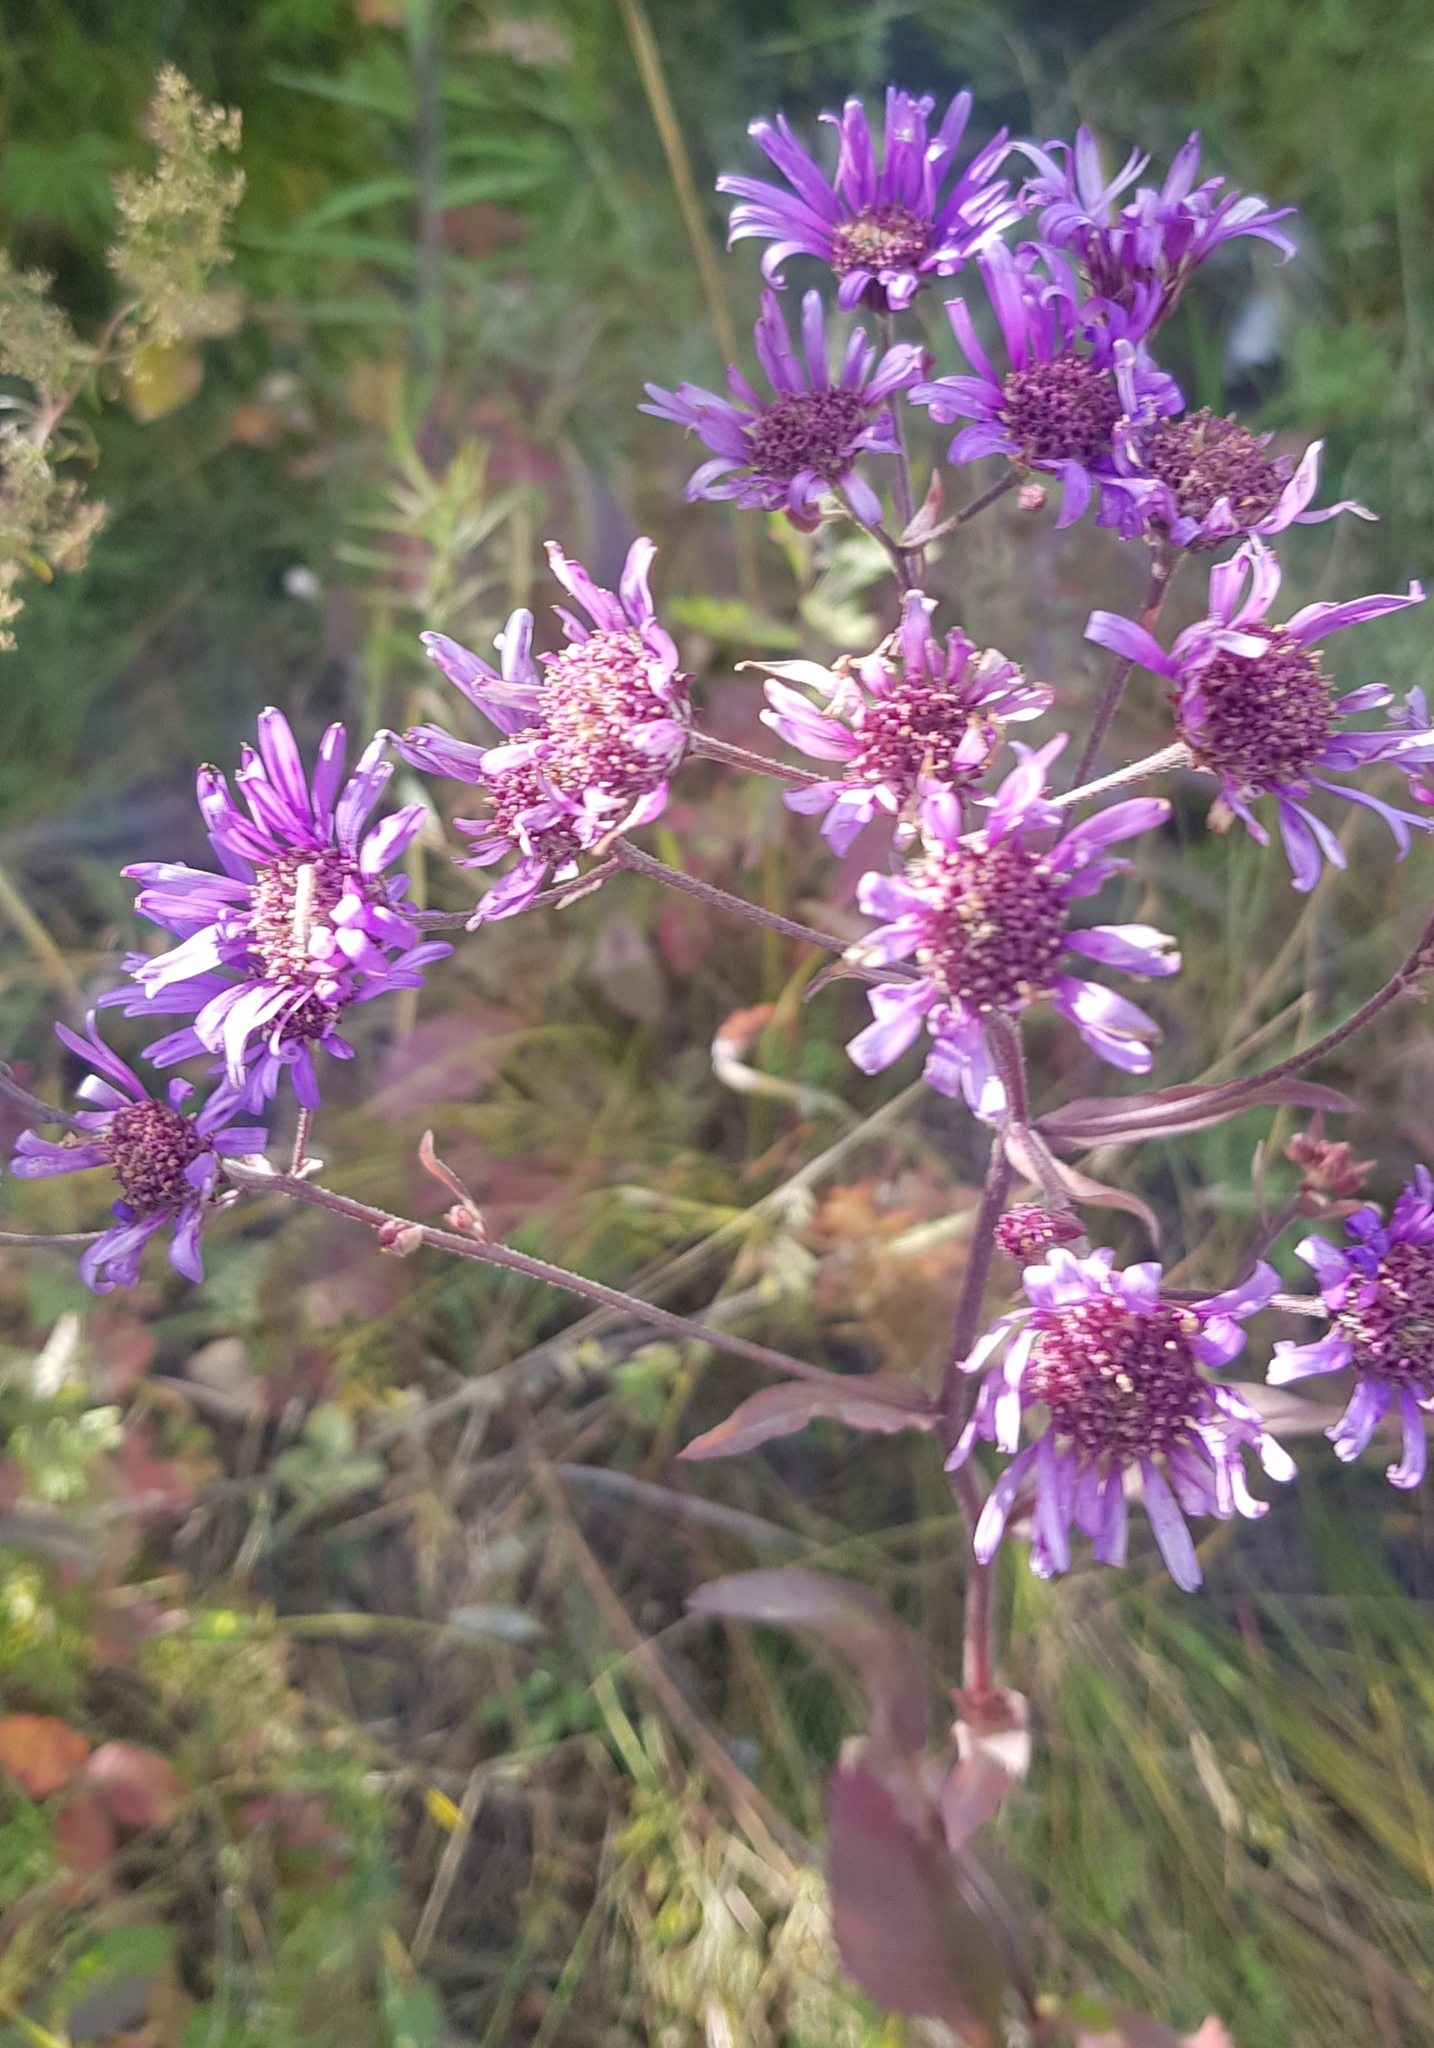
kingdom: Plantae
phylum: Tracheophyta
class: Magnoliopsida
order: Asterales
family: Asteraceae
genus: Aster
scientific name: Aster tataricus
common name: Tatarian aster
